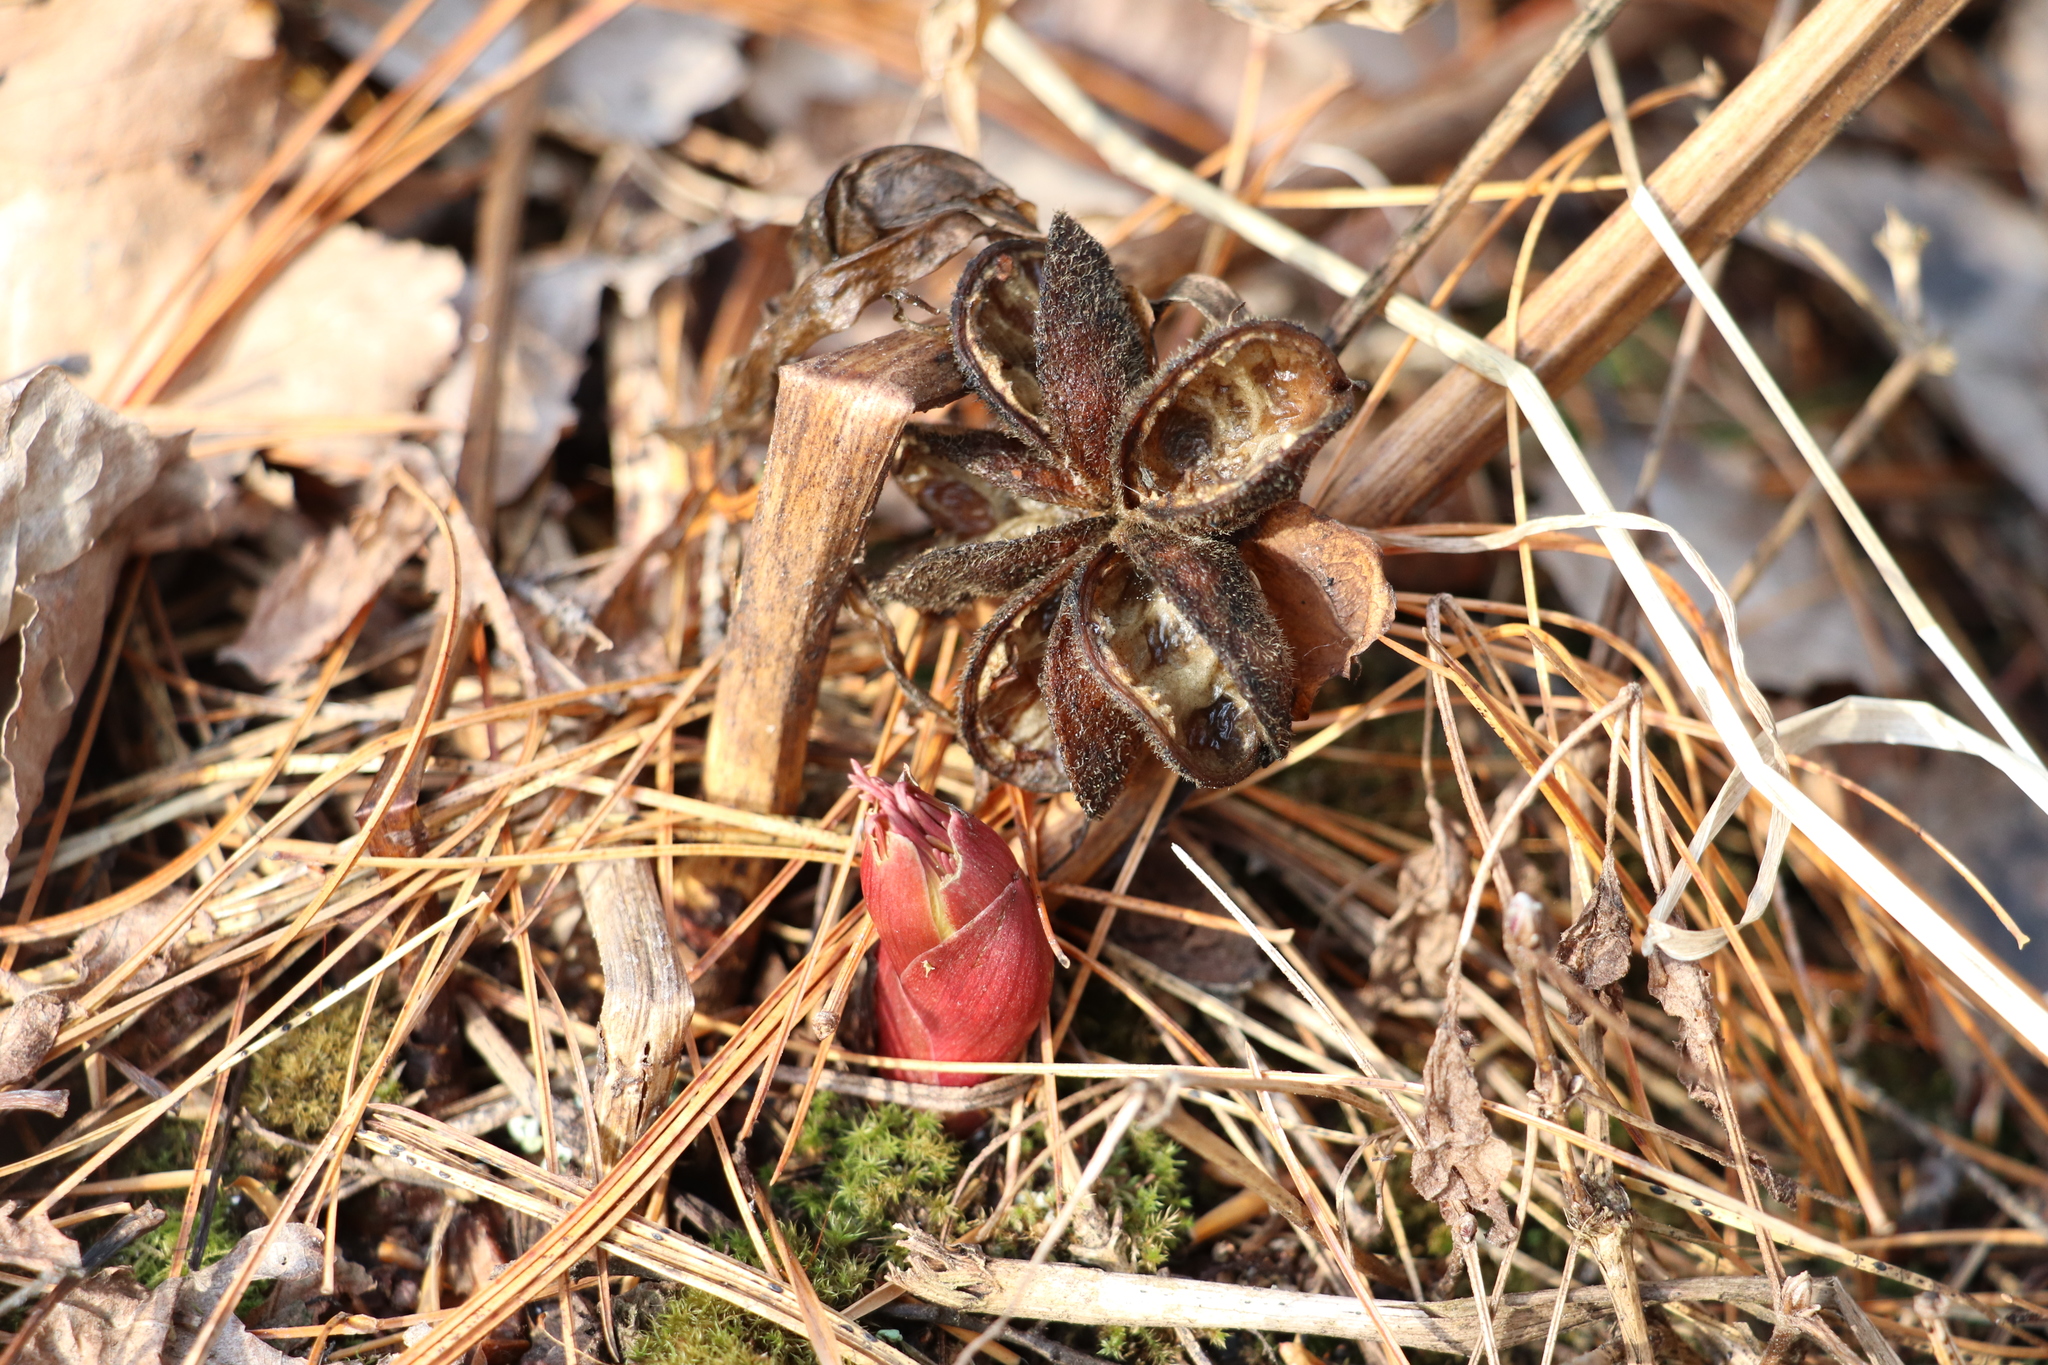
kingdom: Plantae
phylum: Tracheophyta
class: Magnoliopsida
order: Saxifragales
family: Paeoniaceae
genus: Paeonia
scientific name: Paeonia anomala
